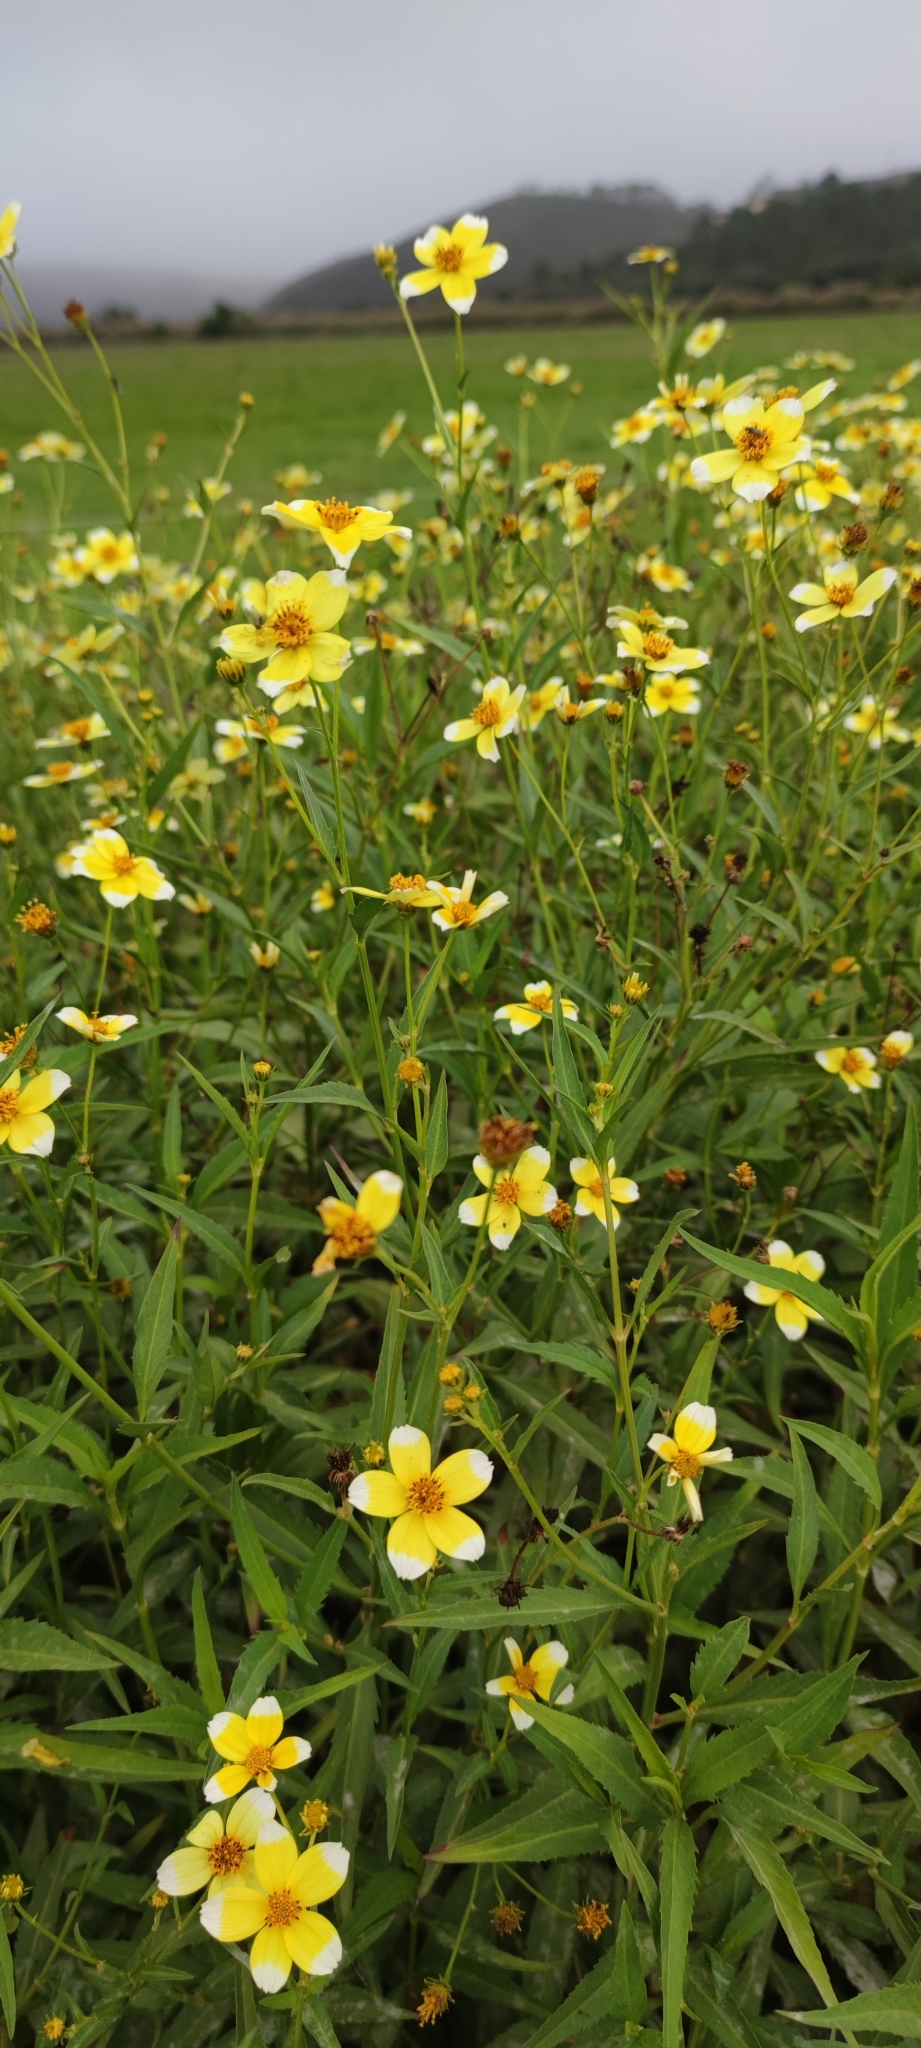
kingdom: Plantae
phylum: Tracheophyta
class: Magnoliopsida
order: Asterales
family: Asteraceae
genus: Bidens
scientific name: Bidens aurea
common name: Arizona beggar-ticks
